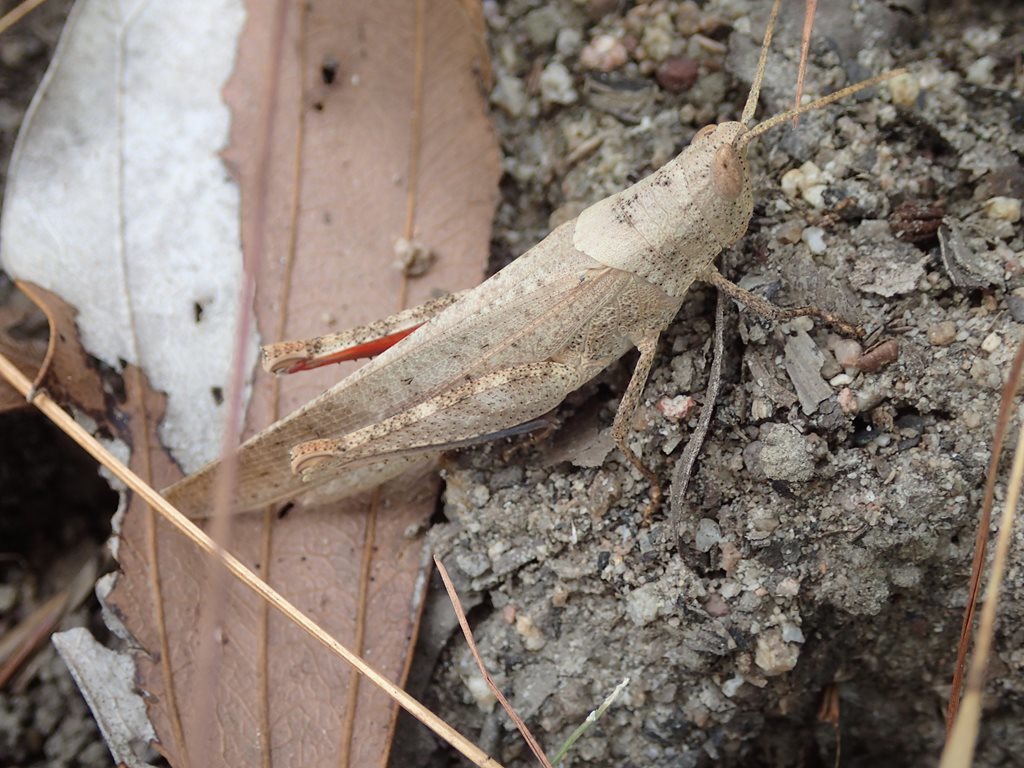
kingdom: Animalia
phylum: Arthropoda
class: Insecta
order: Orthoptera
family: Acrididae
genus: Goniaea
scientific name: Goniaea furcifera
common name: Tropical gumleaf grasshopper
